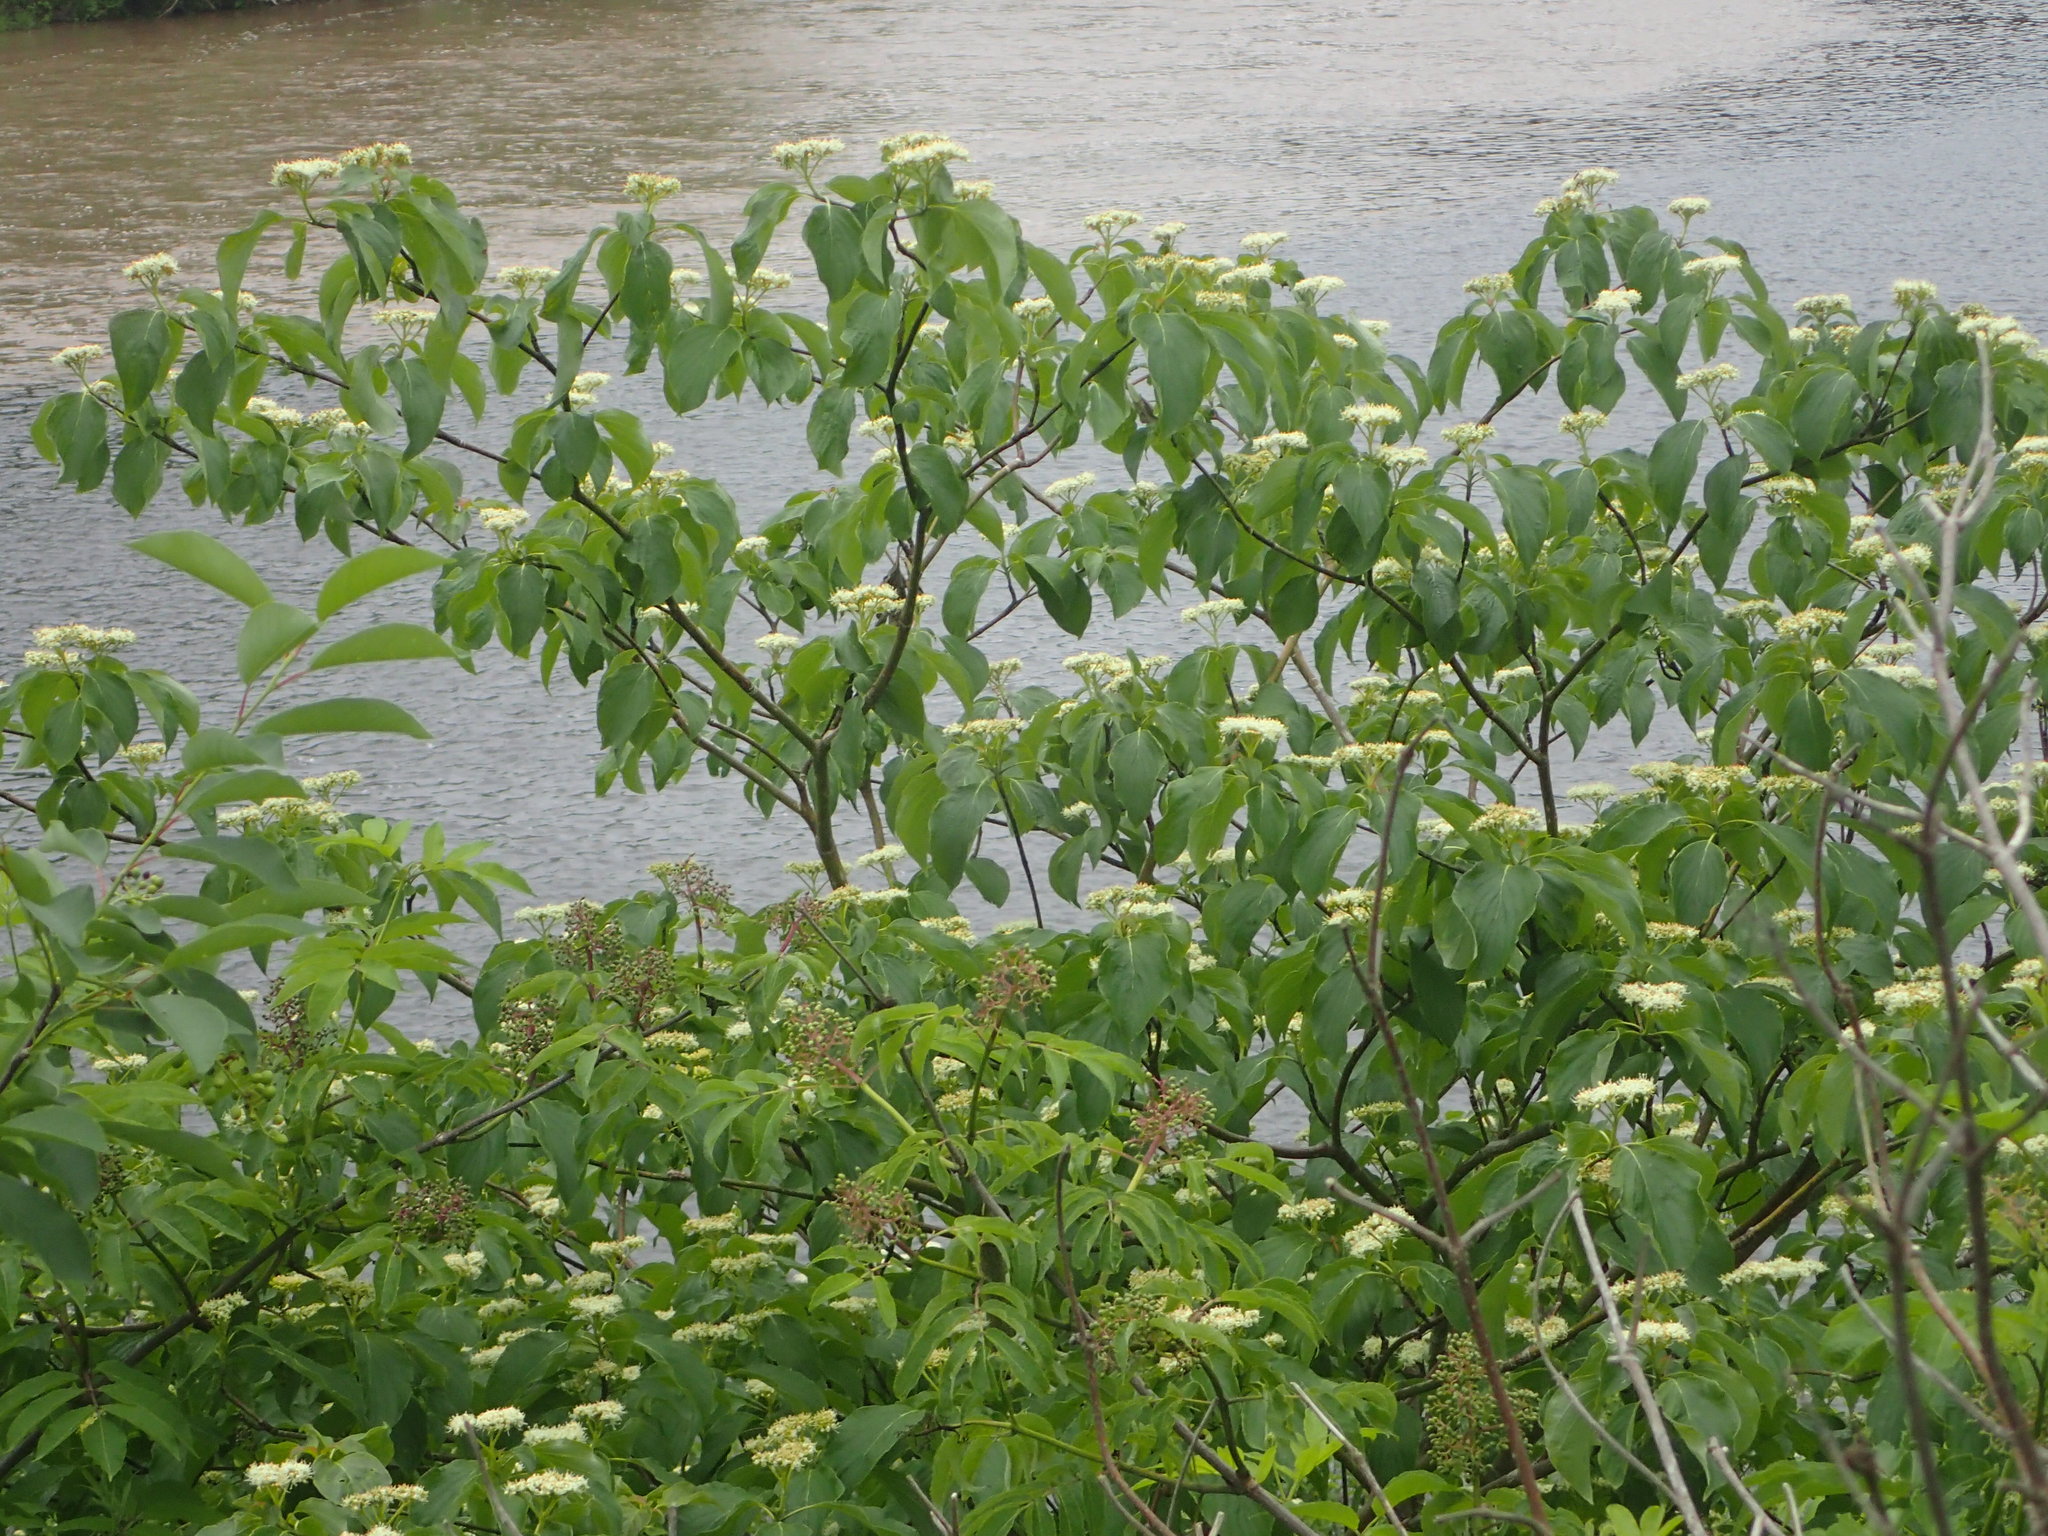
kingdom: Plantae
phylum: Tracheophyta
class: Magnoliopsida
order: Cornales
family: Cornaceae
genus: Cornus
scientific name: Cornus alternifolia
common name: Pagoda dogwood
